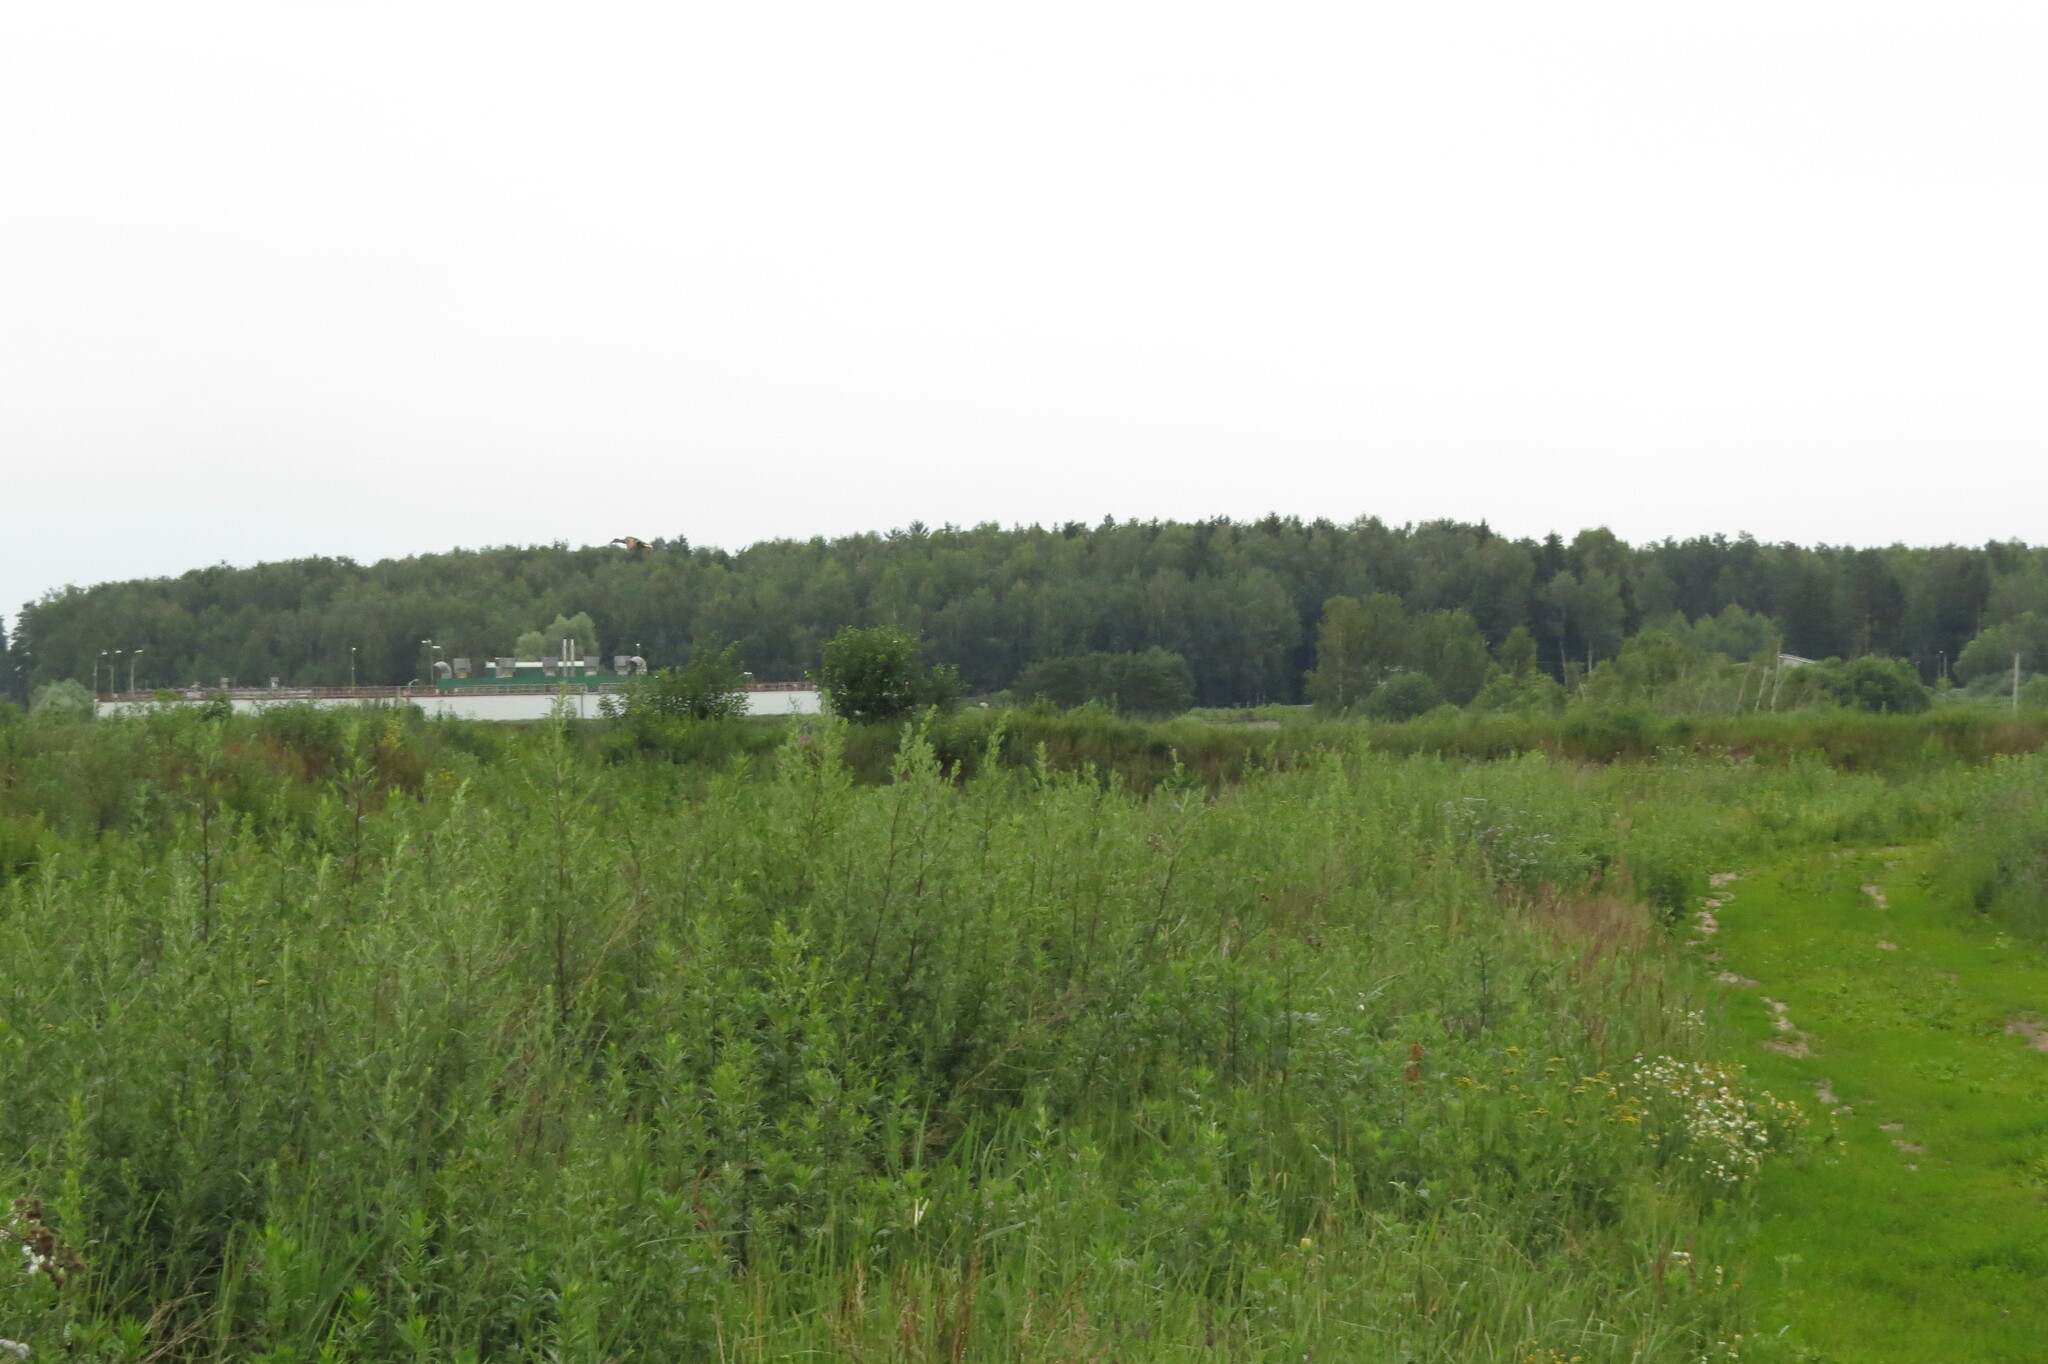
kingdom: Animalia
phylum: Chordata
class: Aves
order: Anseriformes
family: Anatidae
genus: Mareca
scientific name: Mareca strepera
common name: Gadwall
